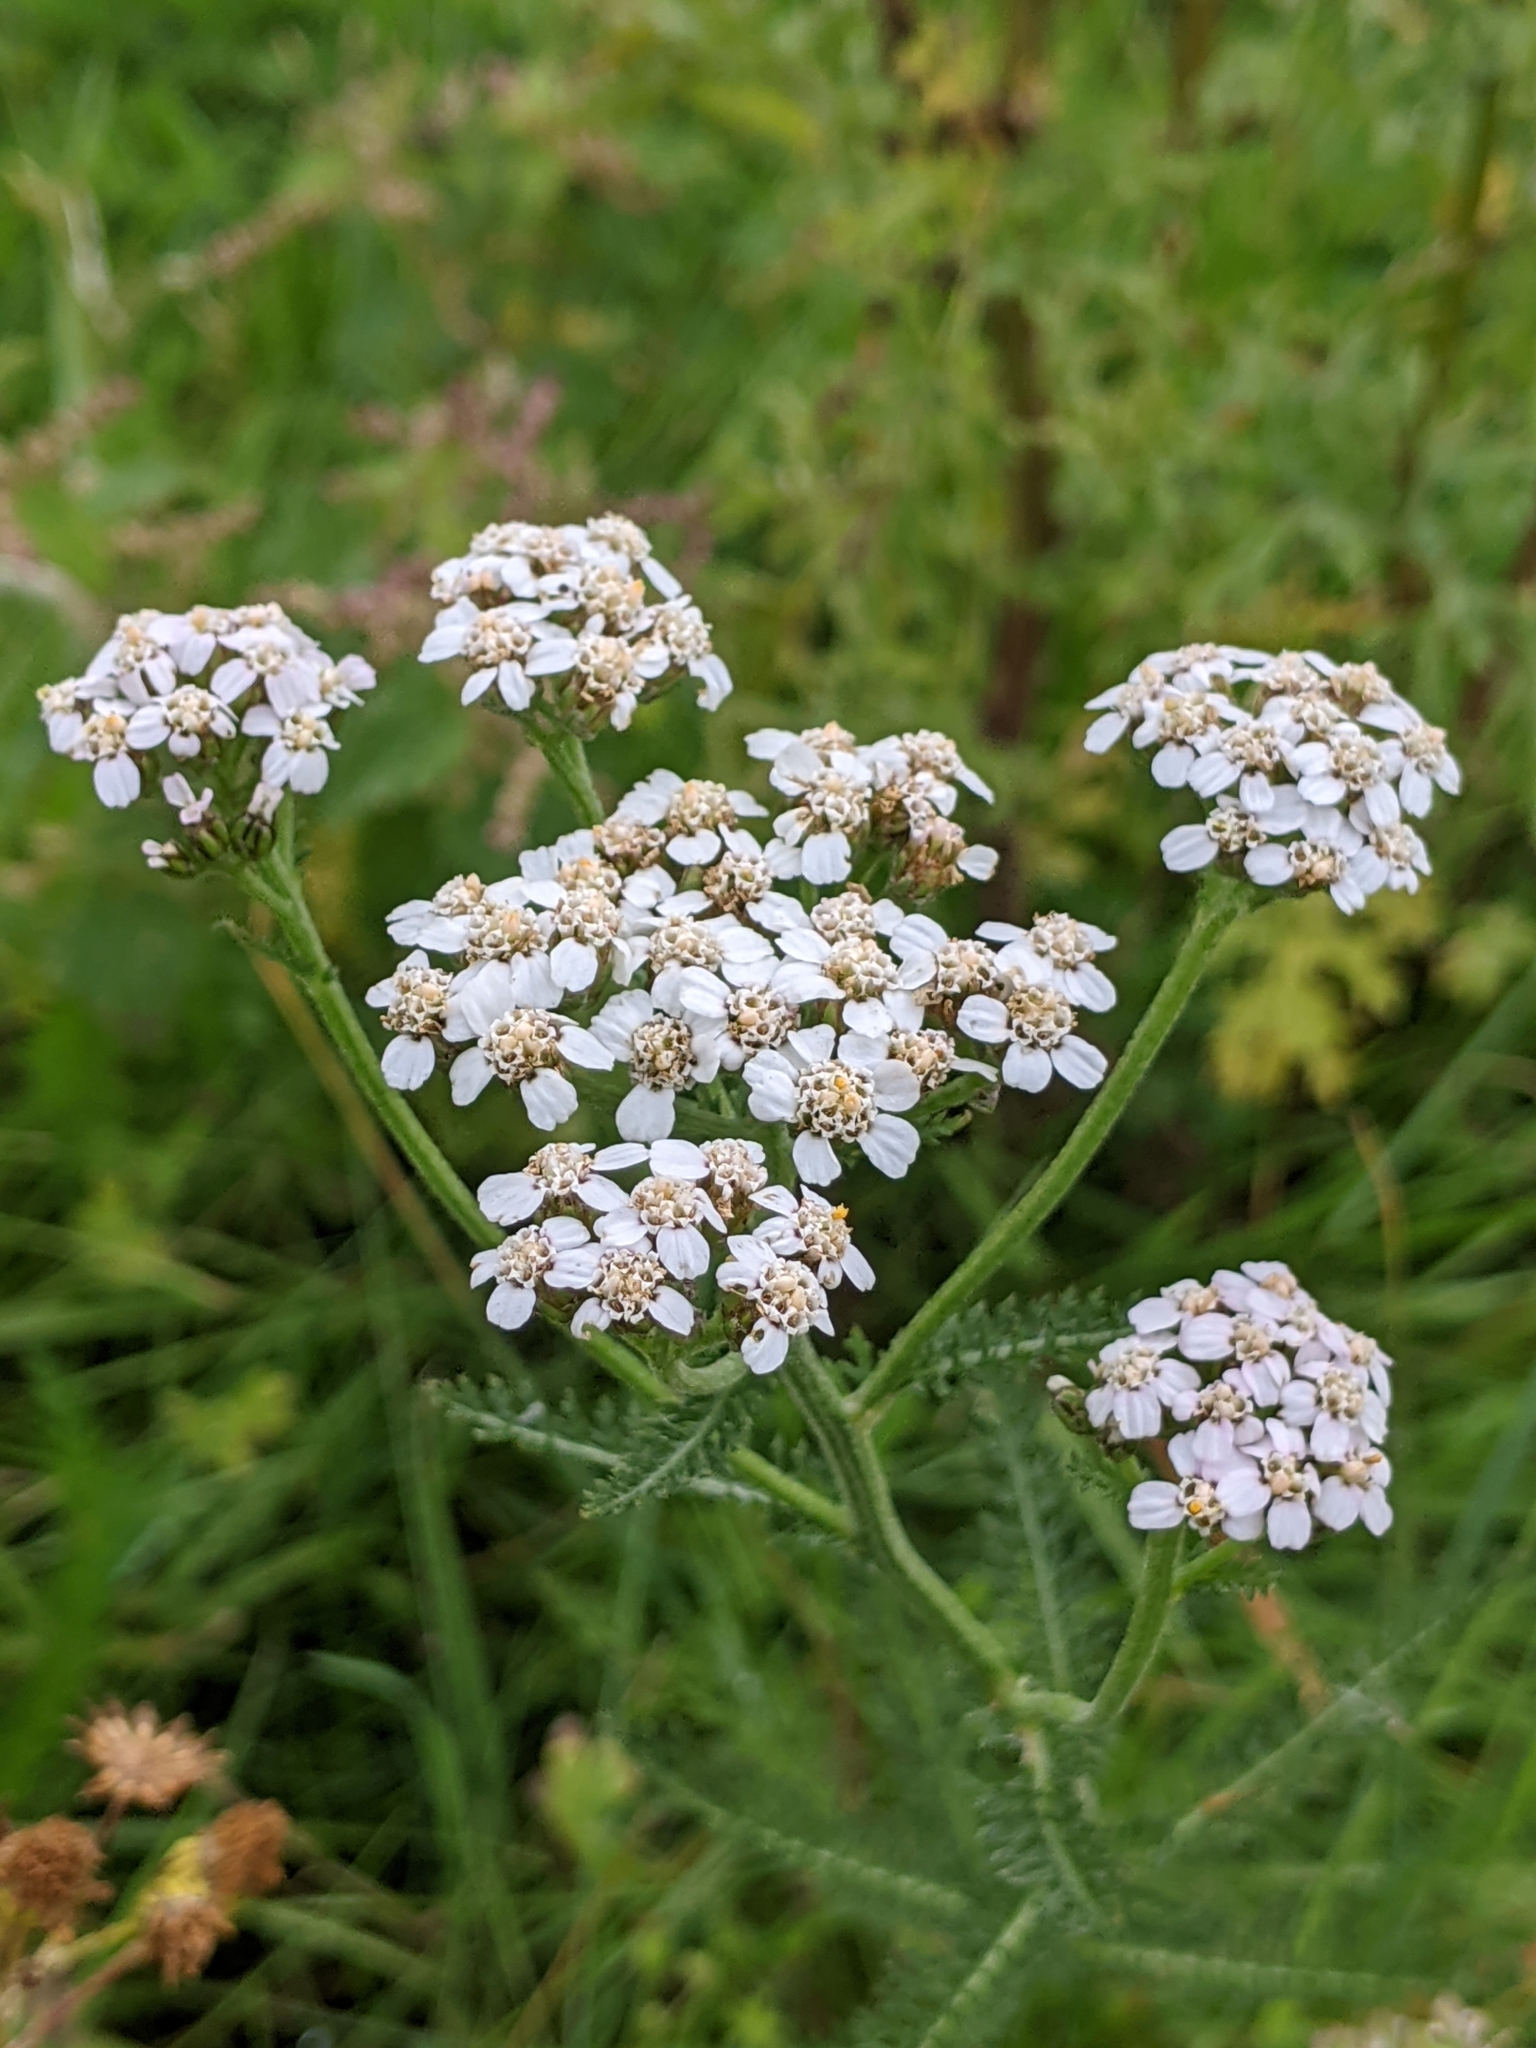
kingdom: Plantae
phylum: Tracheophyta
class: Magnoliopsida
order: Asterales
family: Asteraceae
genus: Achillea
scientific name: Achillea millefolium
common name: Yarrow
